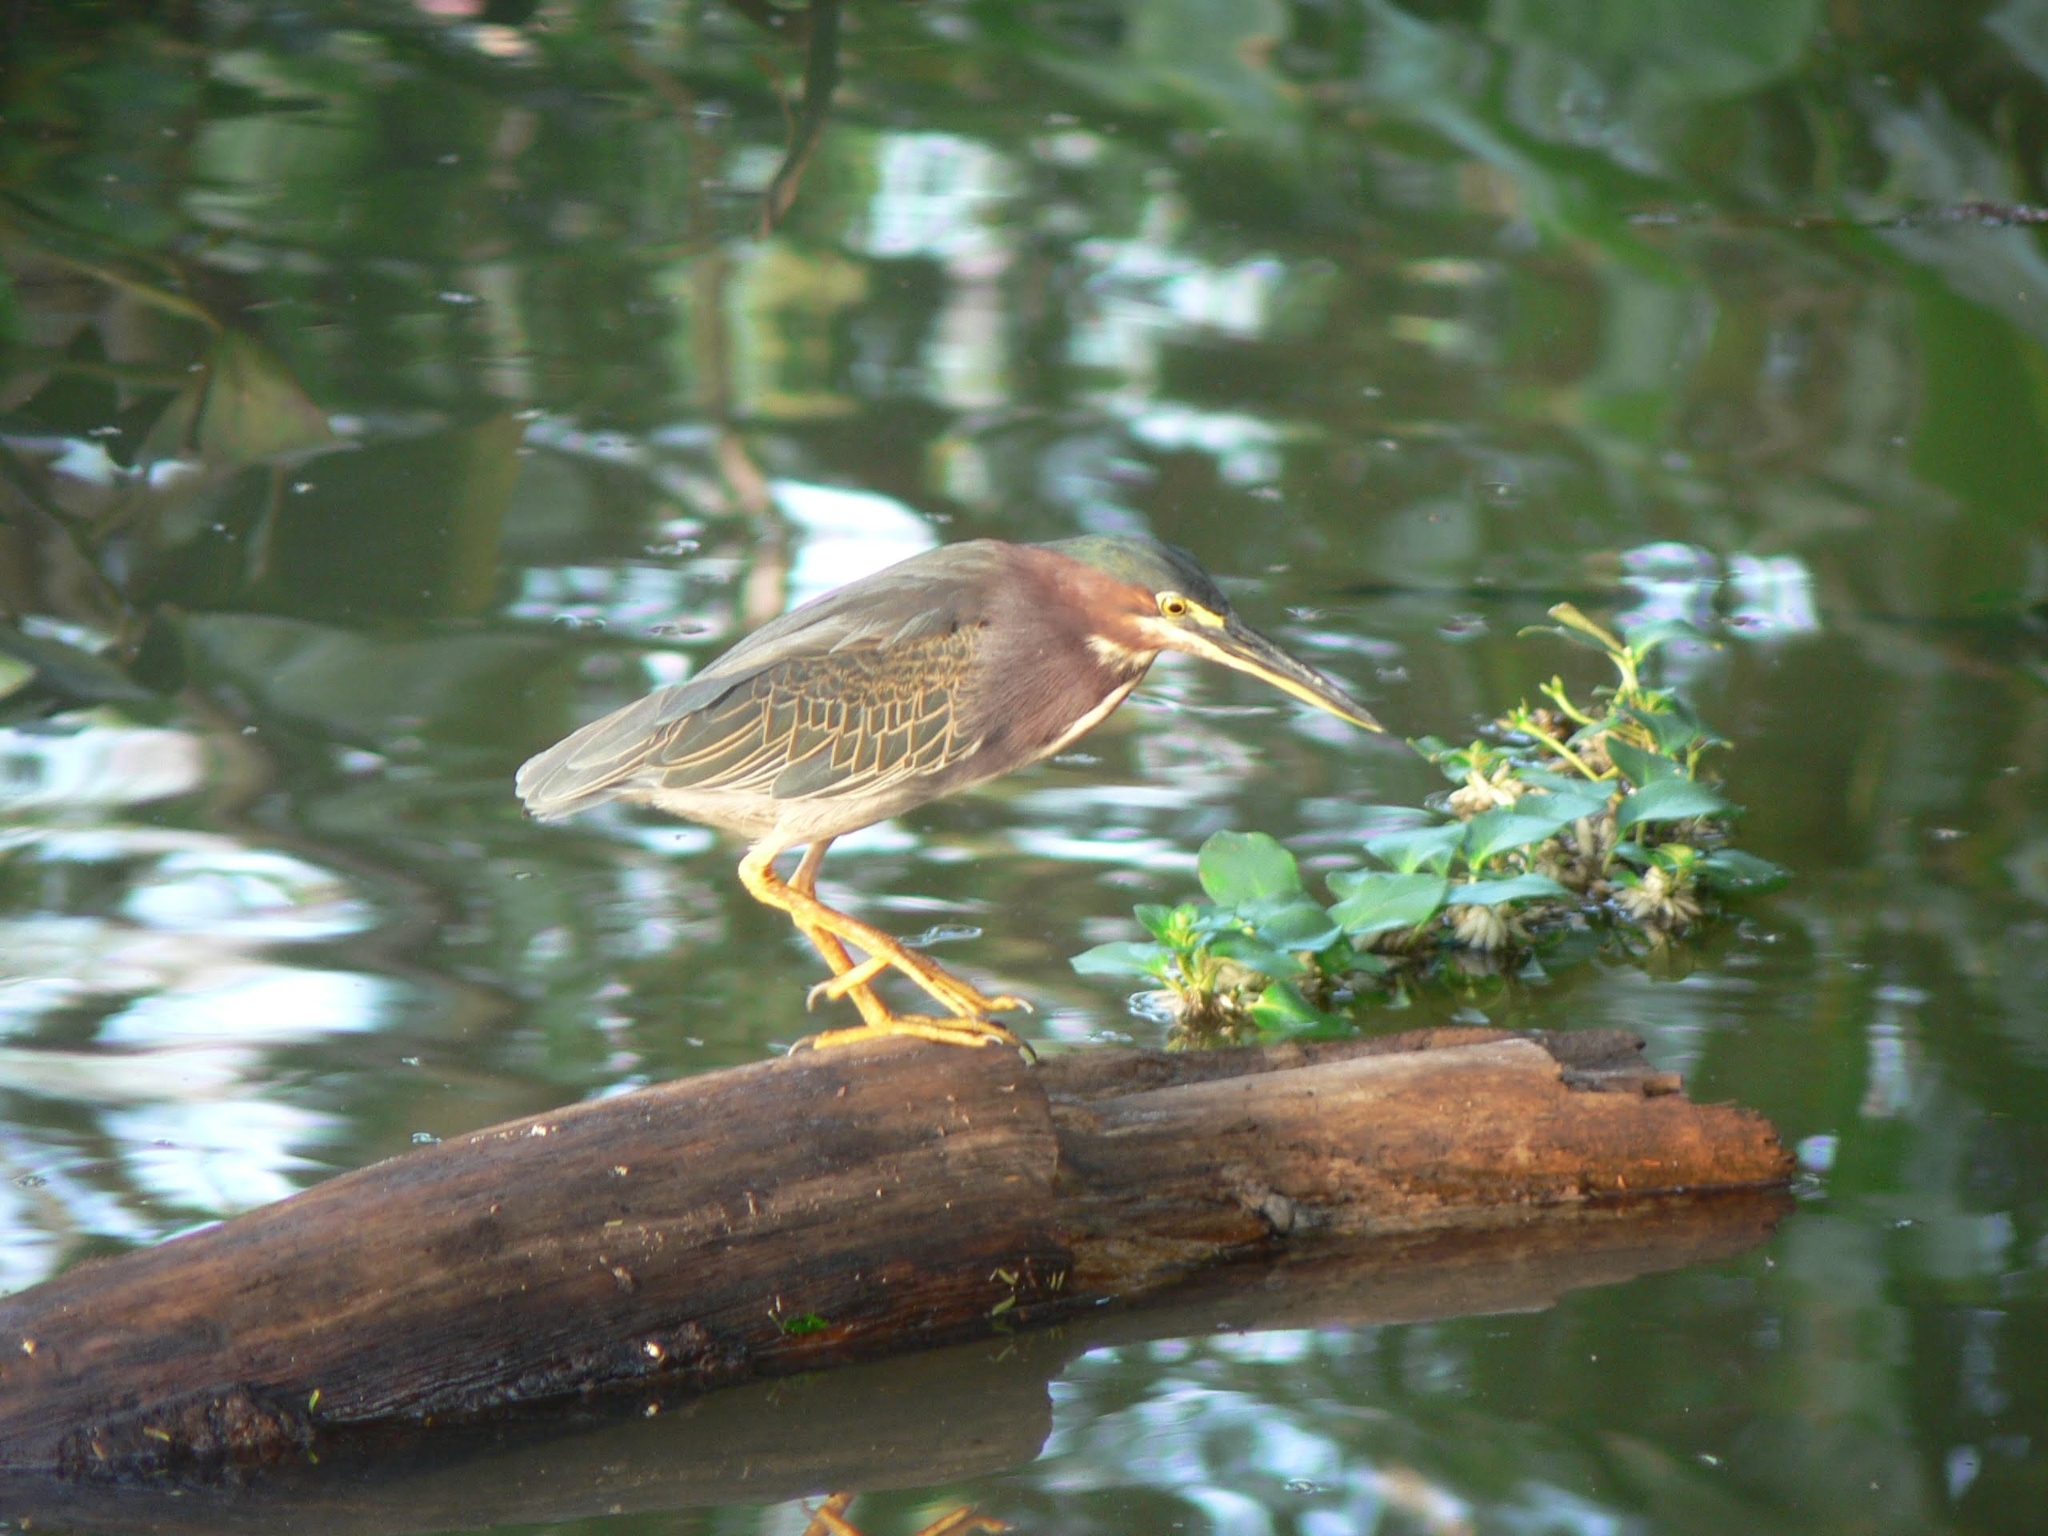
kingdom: Animalia
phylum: Chordata
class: Aves
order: Pelecaniformes
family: Ardeidae
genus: Butorides
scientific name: Butorides virescens
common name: Green heron
